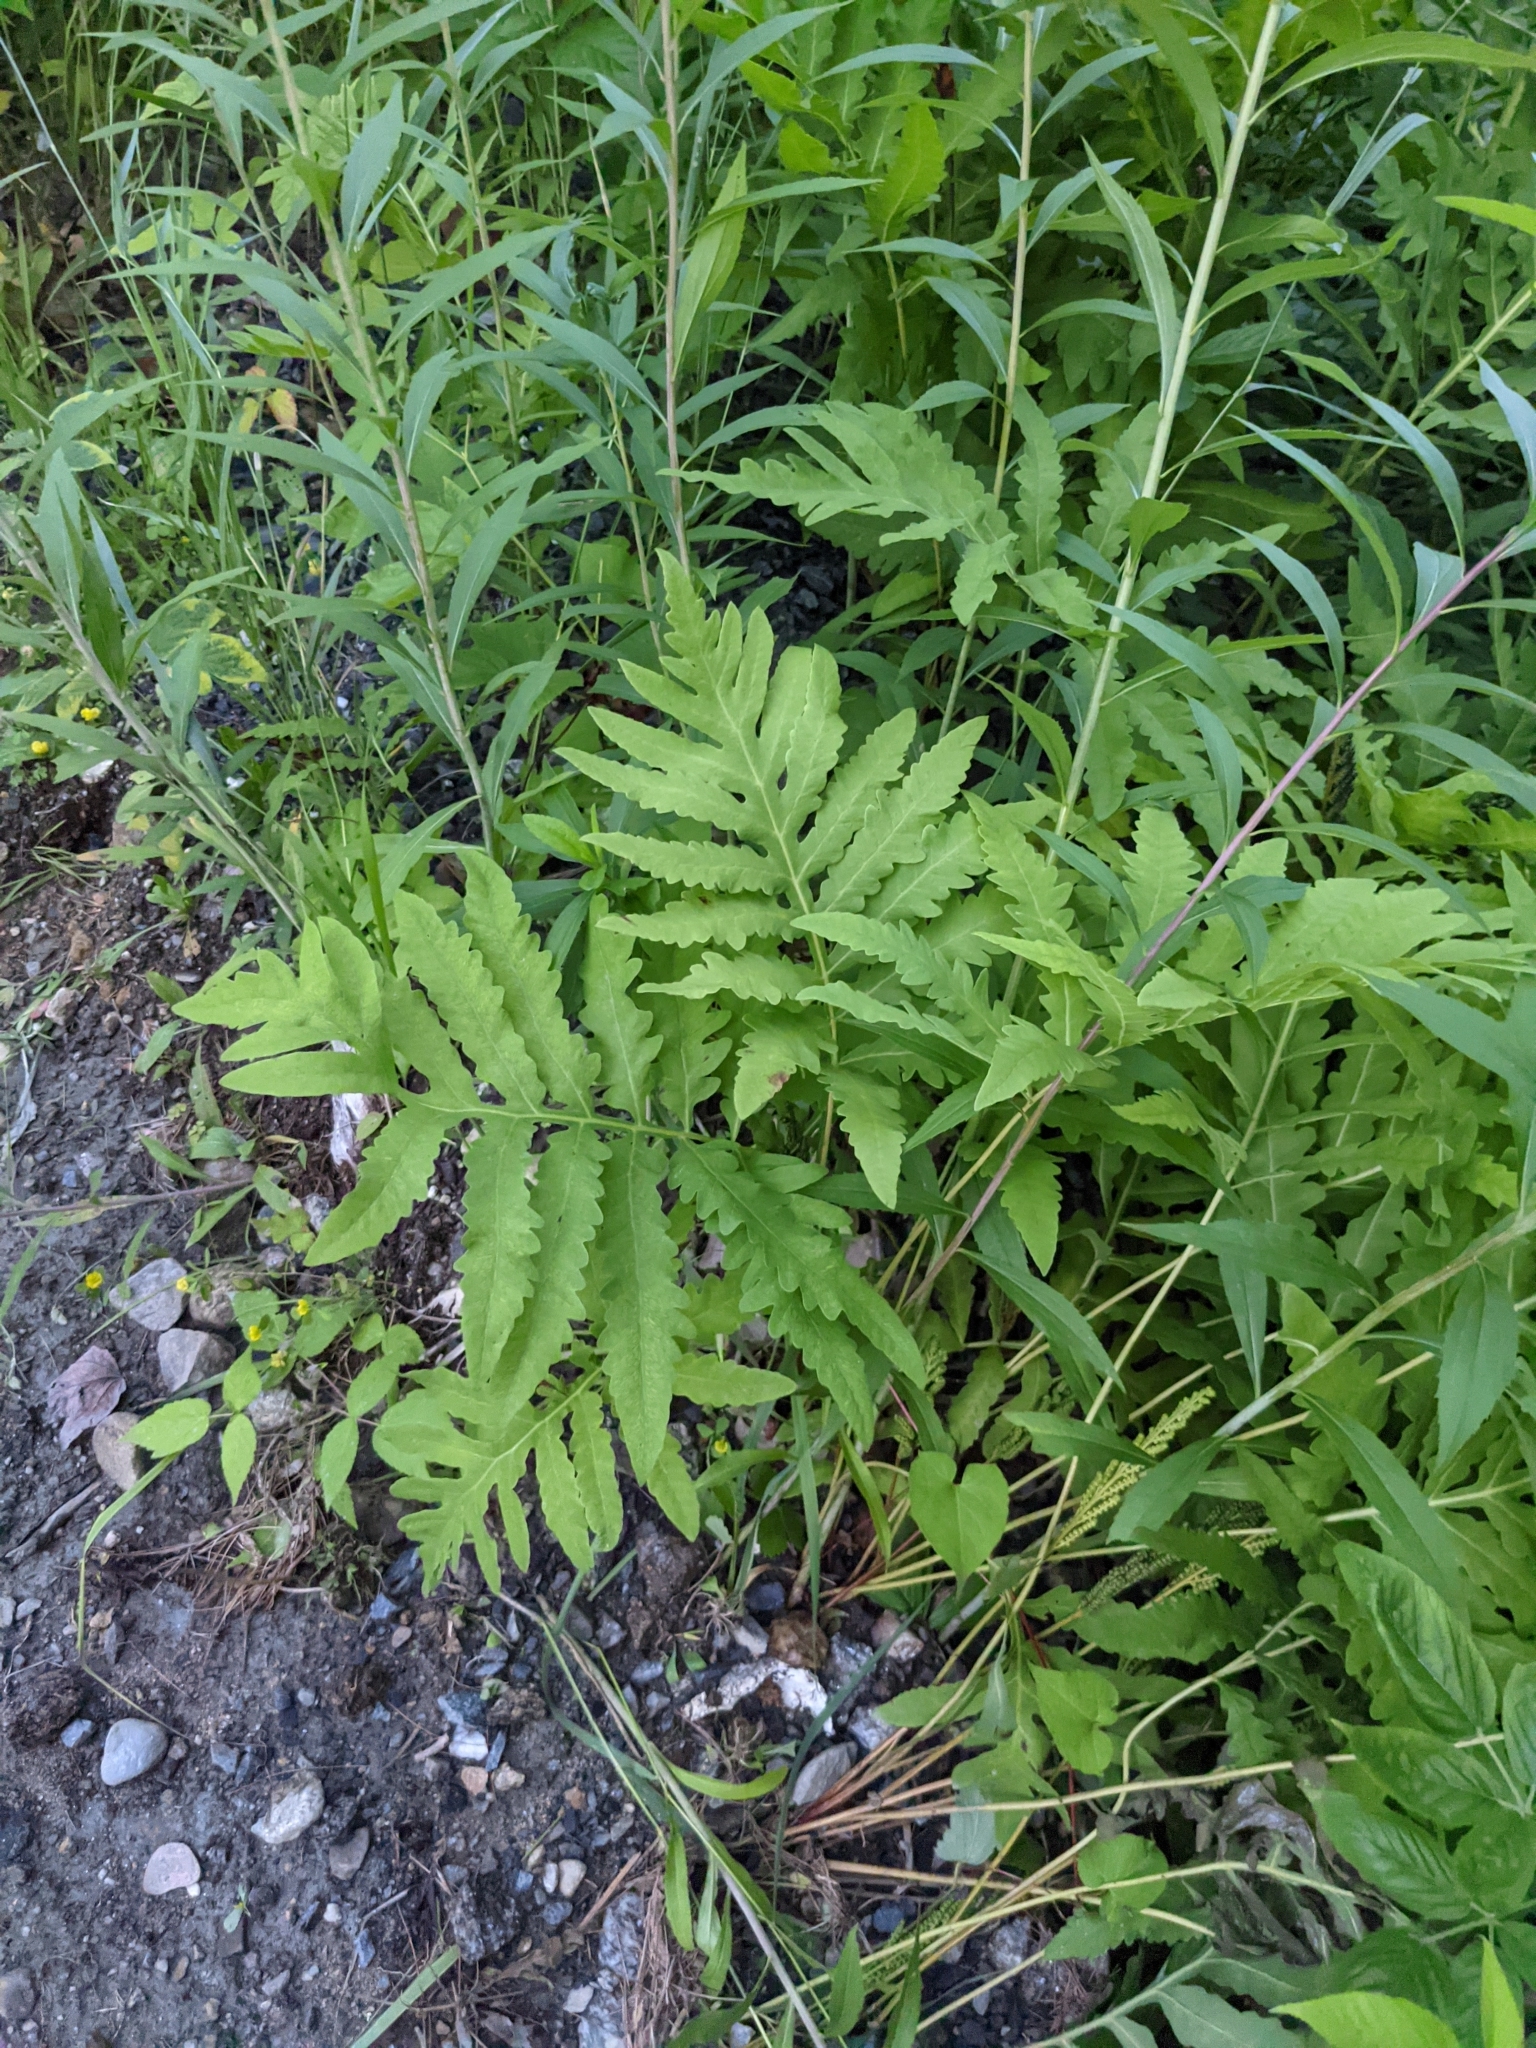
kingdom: Plantae
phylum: Tracheophyta
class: Polypodiopsida
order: Polypodiales
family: Onocleaceae
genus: Onoclea
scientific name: Onoclea sensibilis
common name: Sensitive fern
